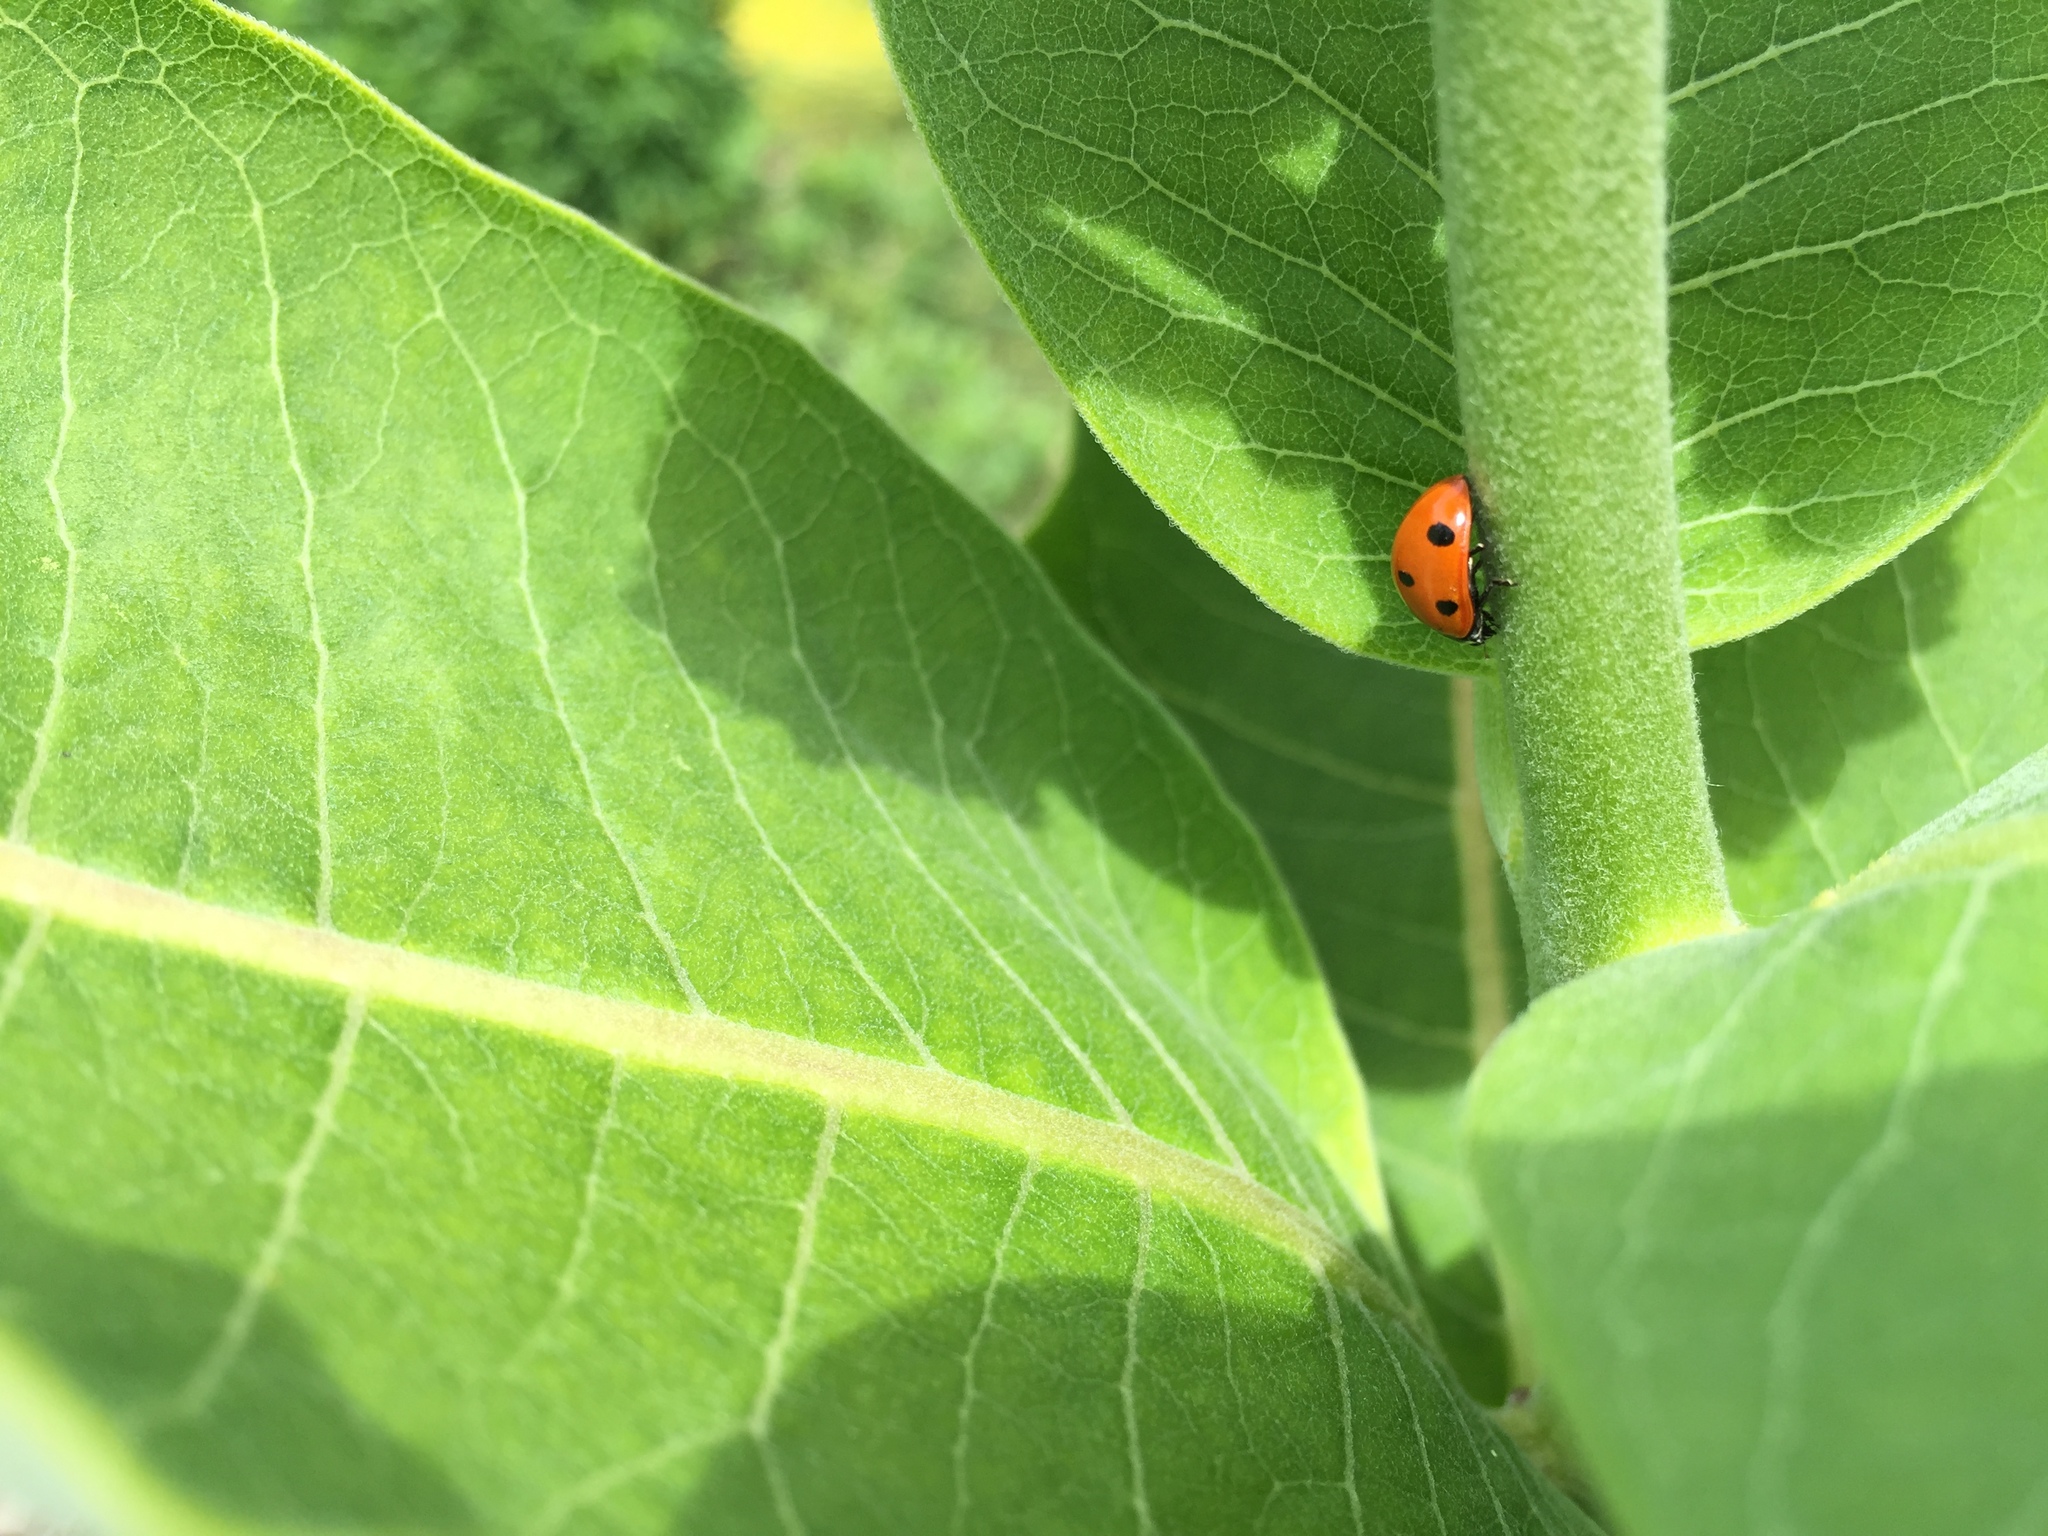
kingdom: Animalia
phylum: Arthropoda
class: Insecta
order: Coleoptera
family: Coccinellidae
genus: Coccinella
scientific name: Coccinella septempunctata
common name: Sevenspotted lady beetle
